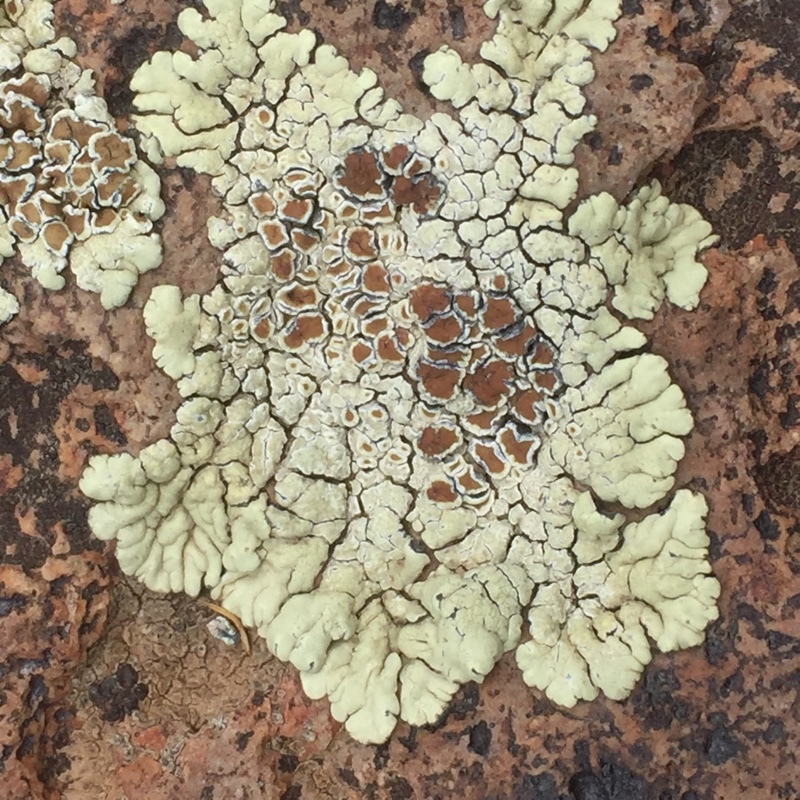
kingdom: Fungi
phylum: Ascomycota
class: Lecanoromycetes
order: Lecanorales
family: Lecanoraceae
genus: Protoparmeliopsis
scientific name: Protoparmeliopsis muralis
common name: Stonewall rim lichen
